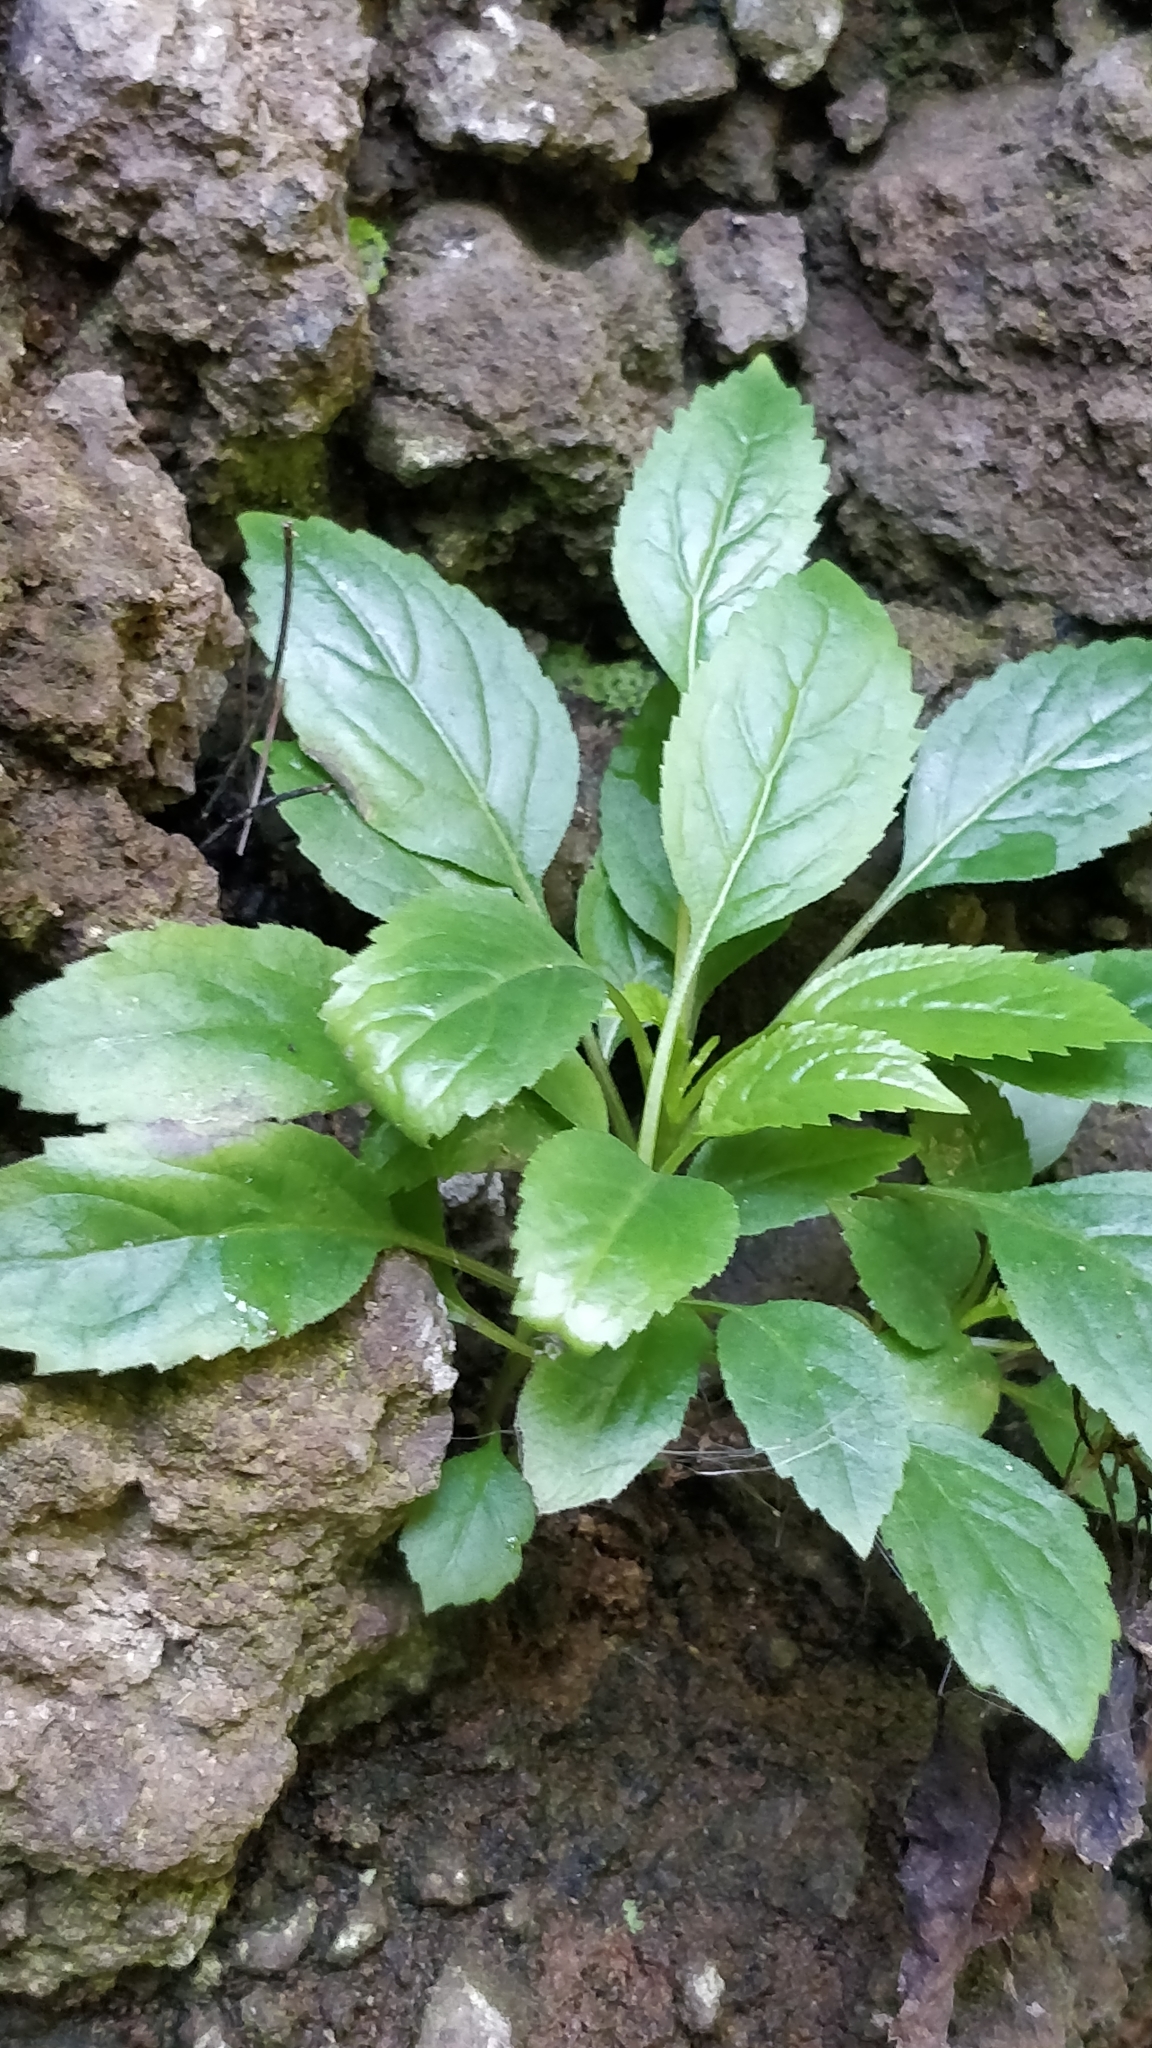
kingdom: Plantae
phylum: Tracheophyta
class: Magnoliopsida
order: Asterales
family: Campanulaceae
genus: Trachelium
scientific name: Trachelium caeruleum
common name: Throatwort
